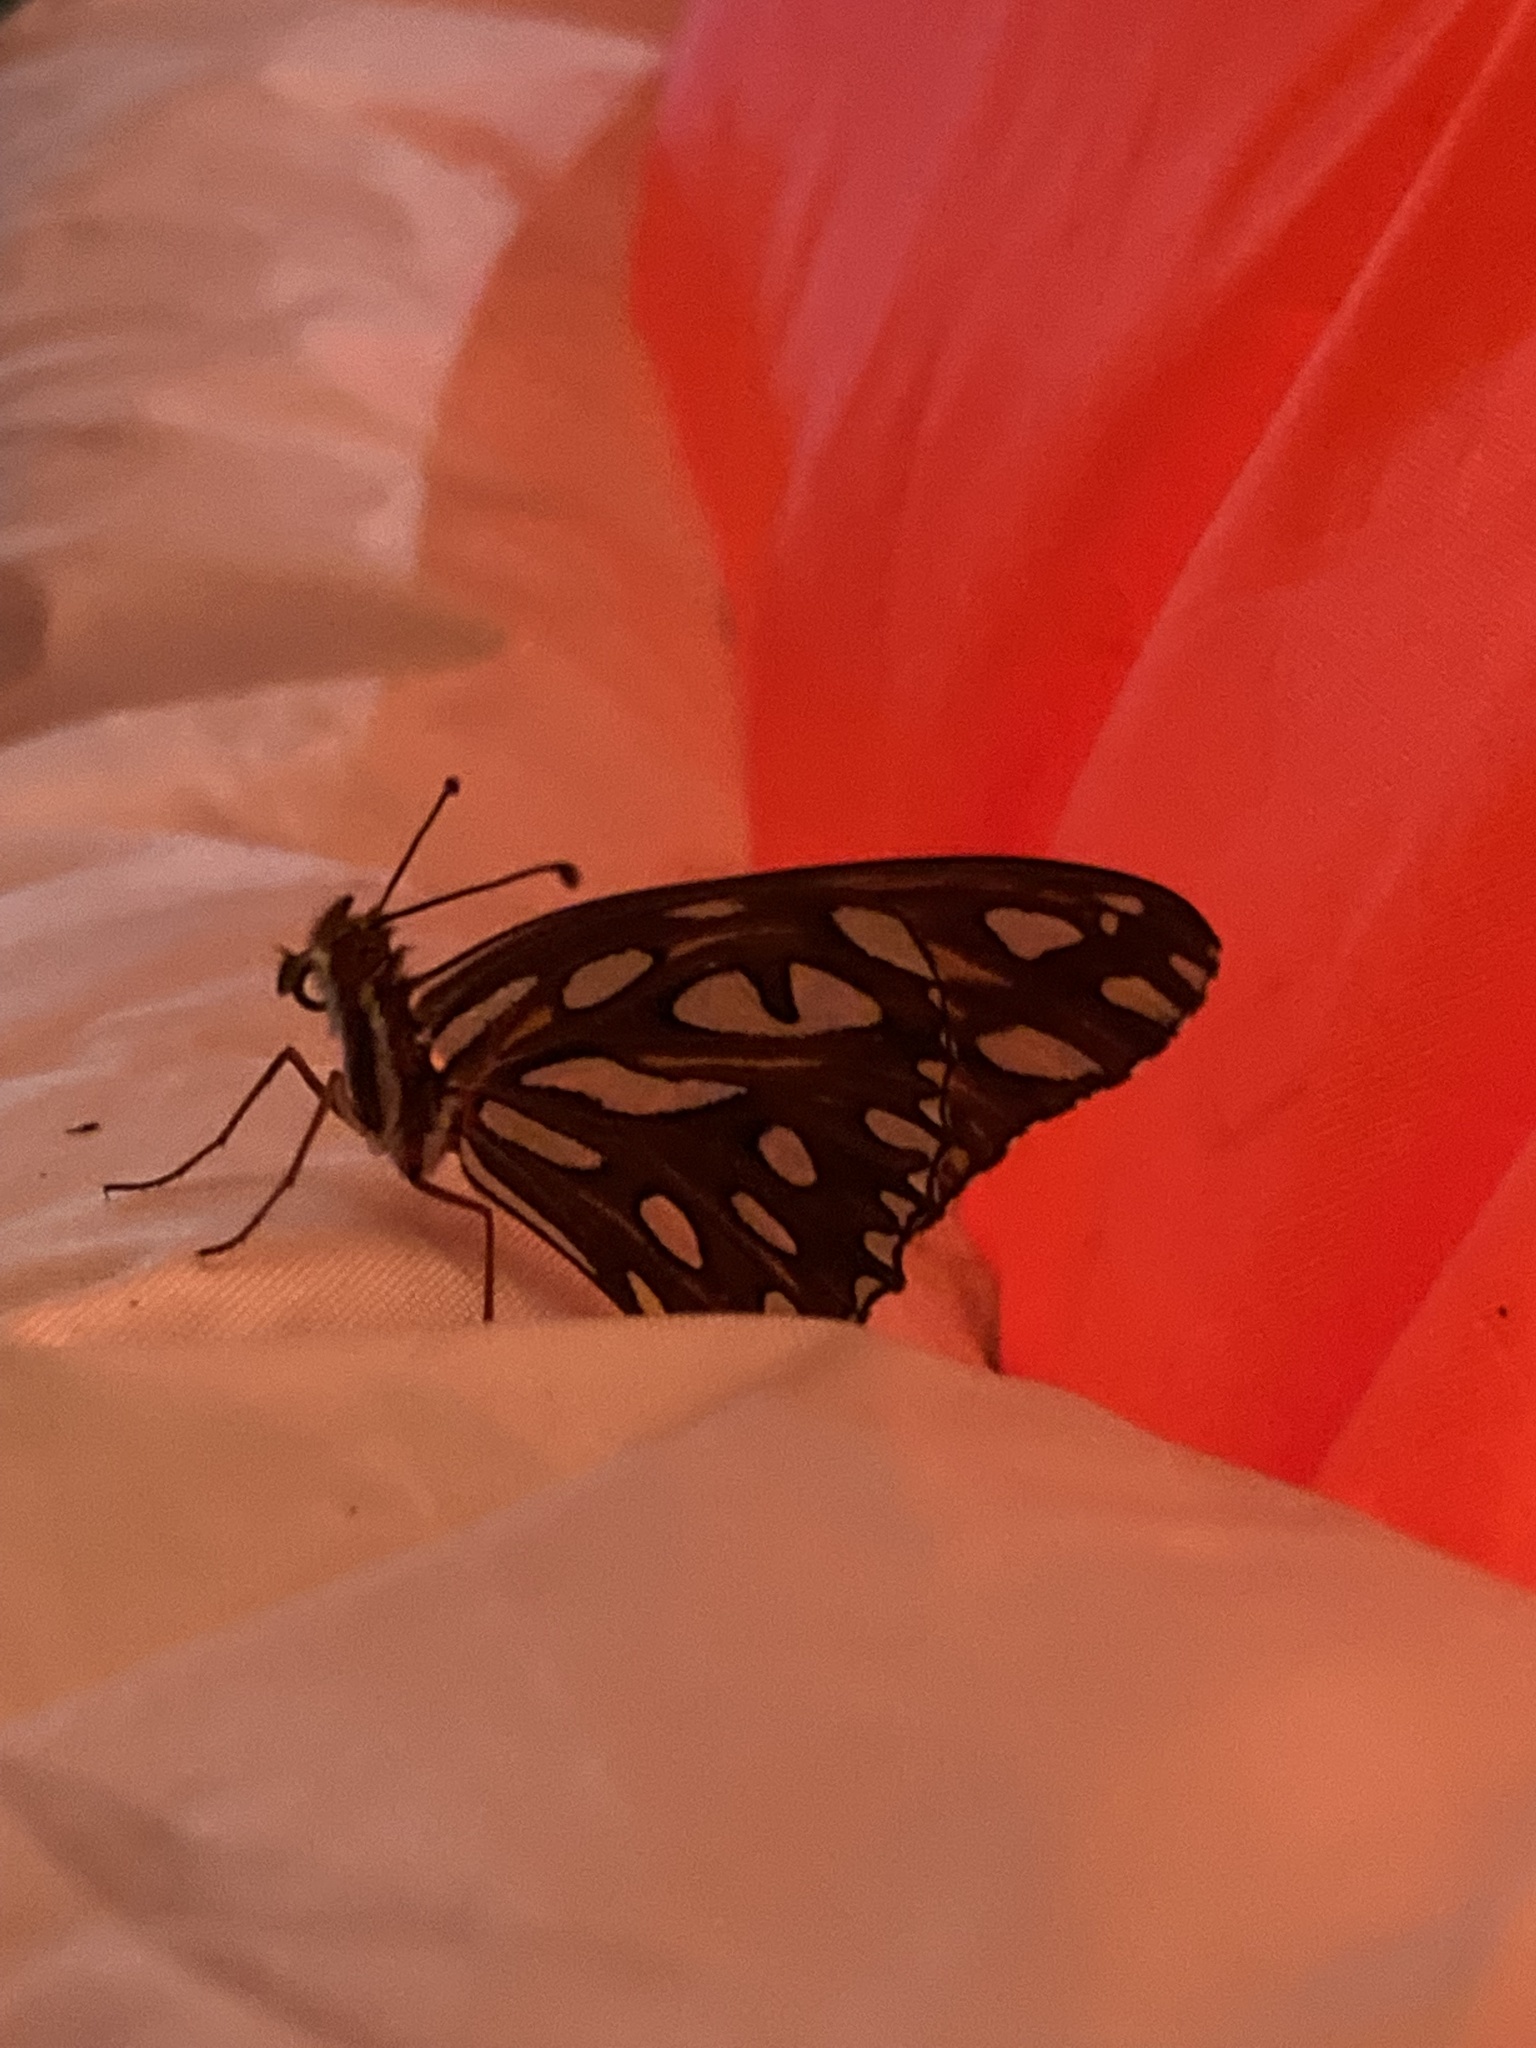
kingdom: Animalia
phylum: Arthropoda
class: Insecta
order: Lepidoptera
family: Nymphalidae
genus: Dione
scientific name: Dione vanillae
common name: Gulf fritillary
